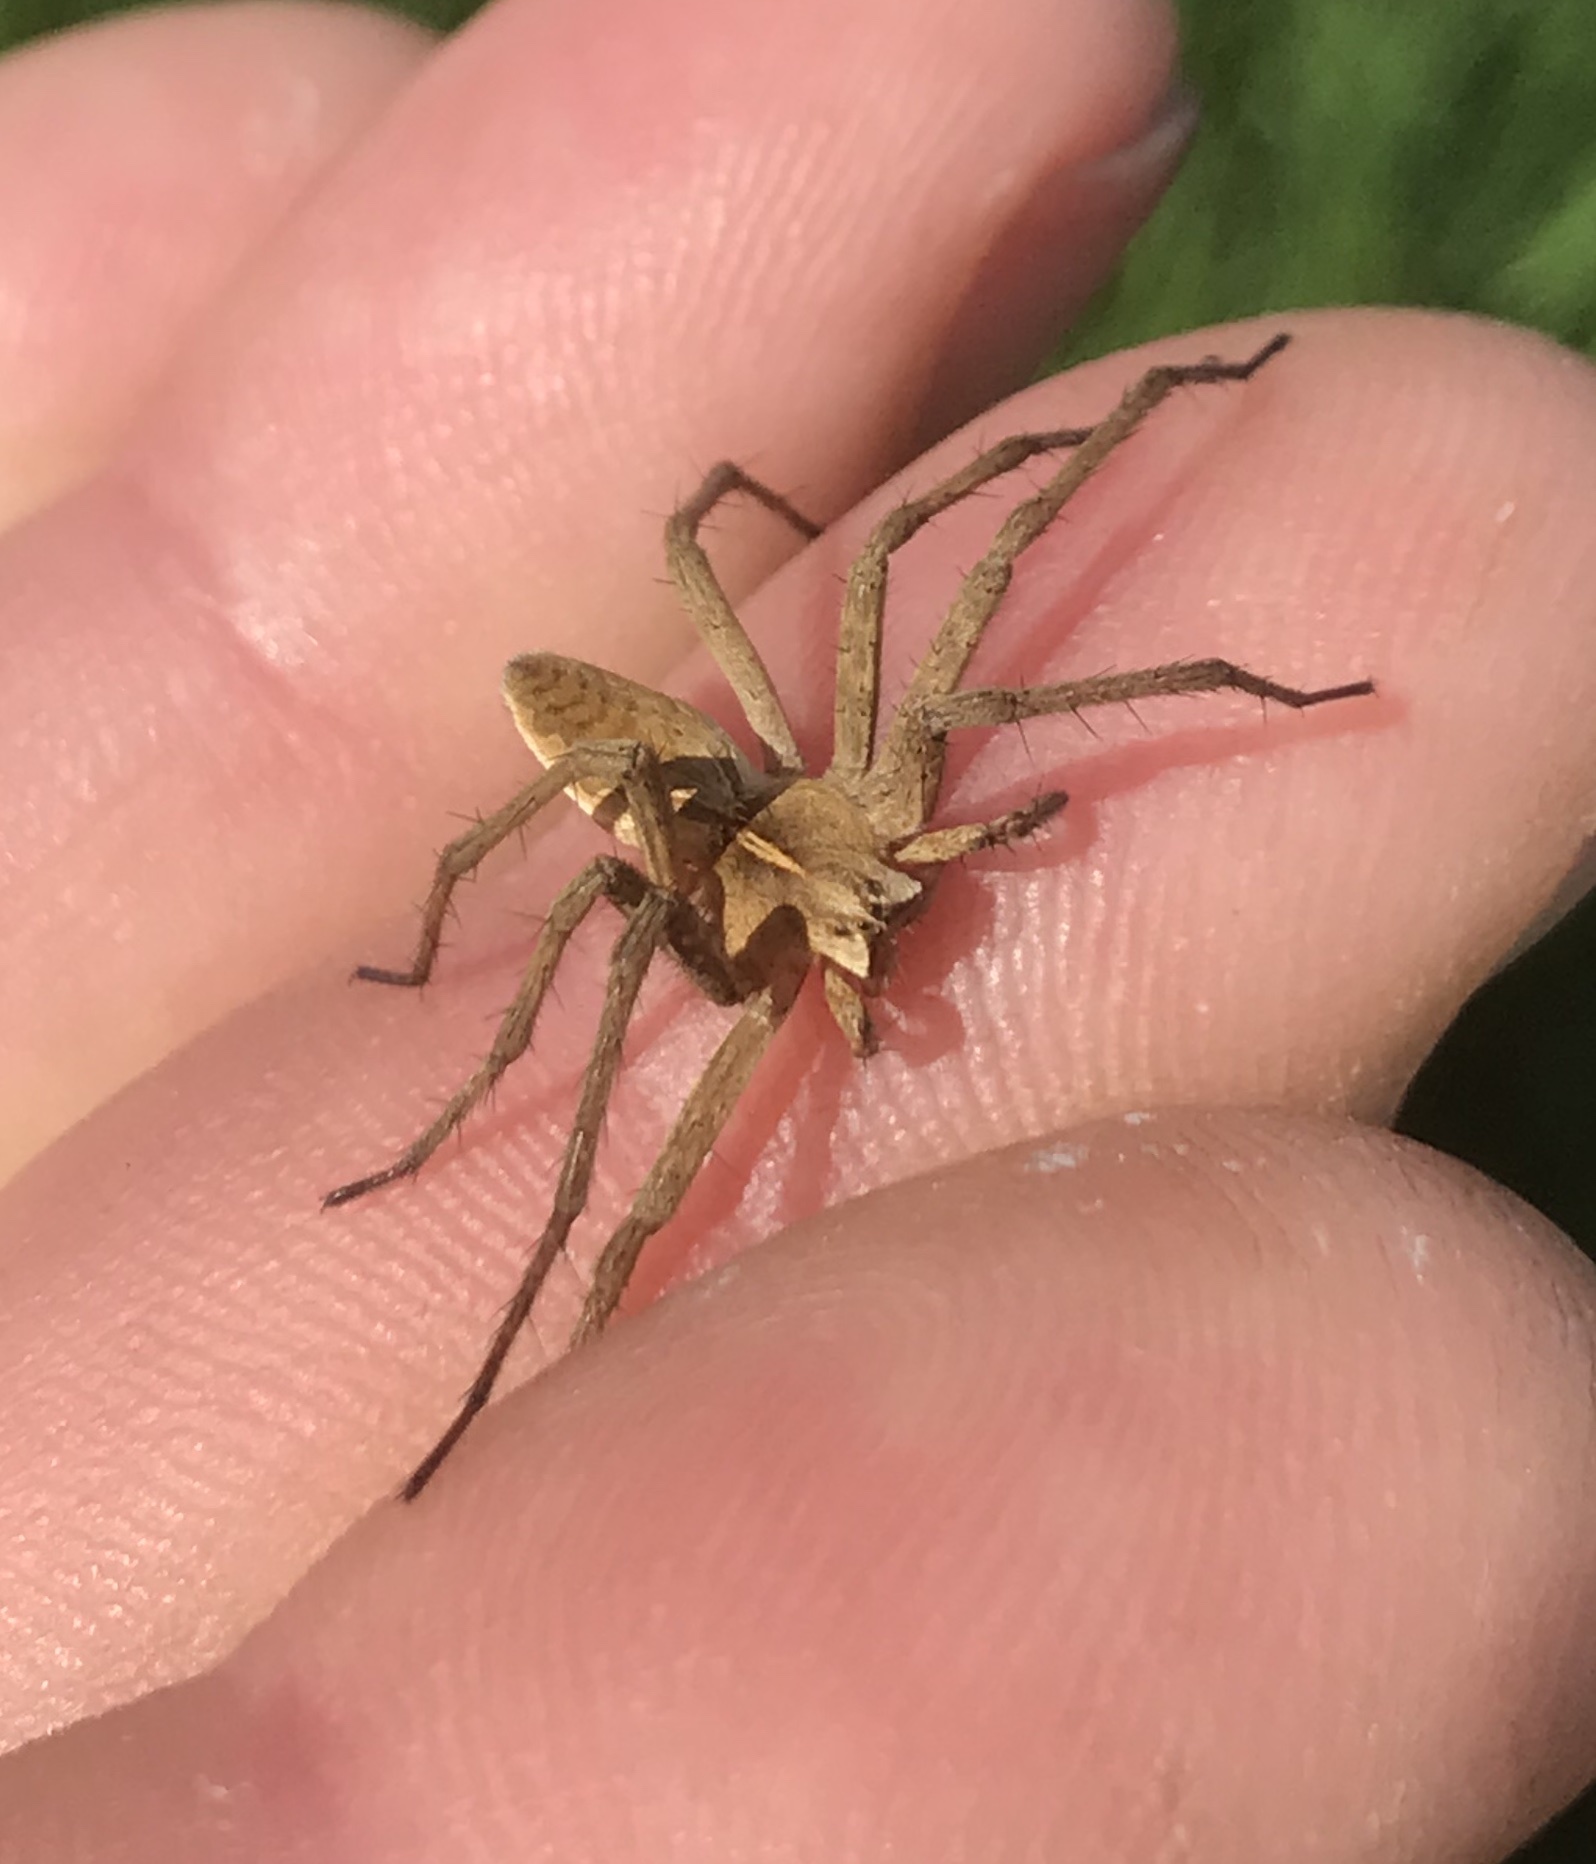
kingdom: Animalia
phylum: Arthropoda
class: Arachnida
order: Araneae
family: Pisauridae
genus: Pisaura
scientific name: Pisaura mirabilis
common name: Tent spider
